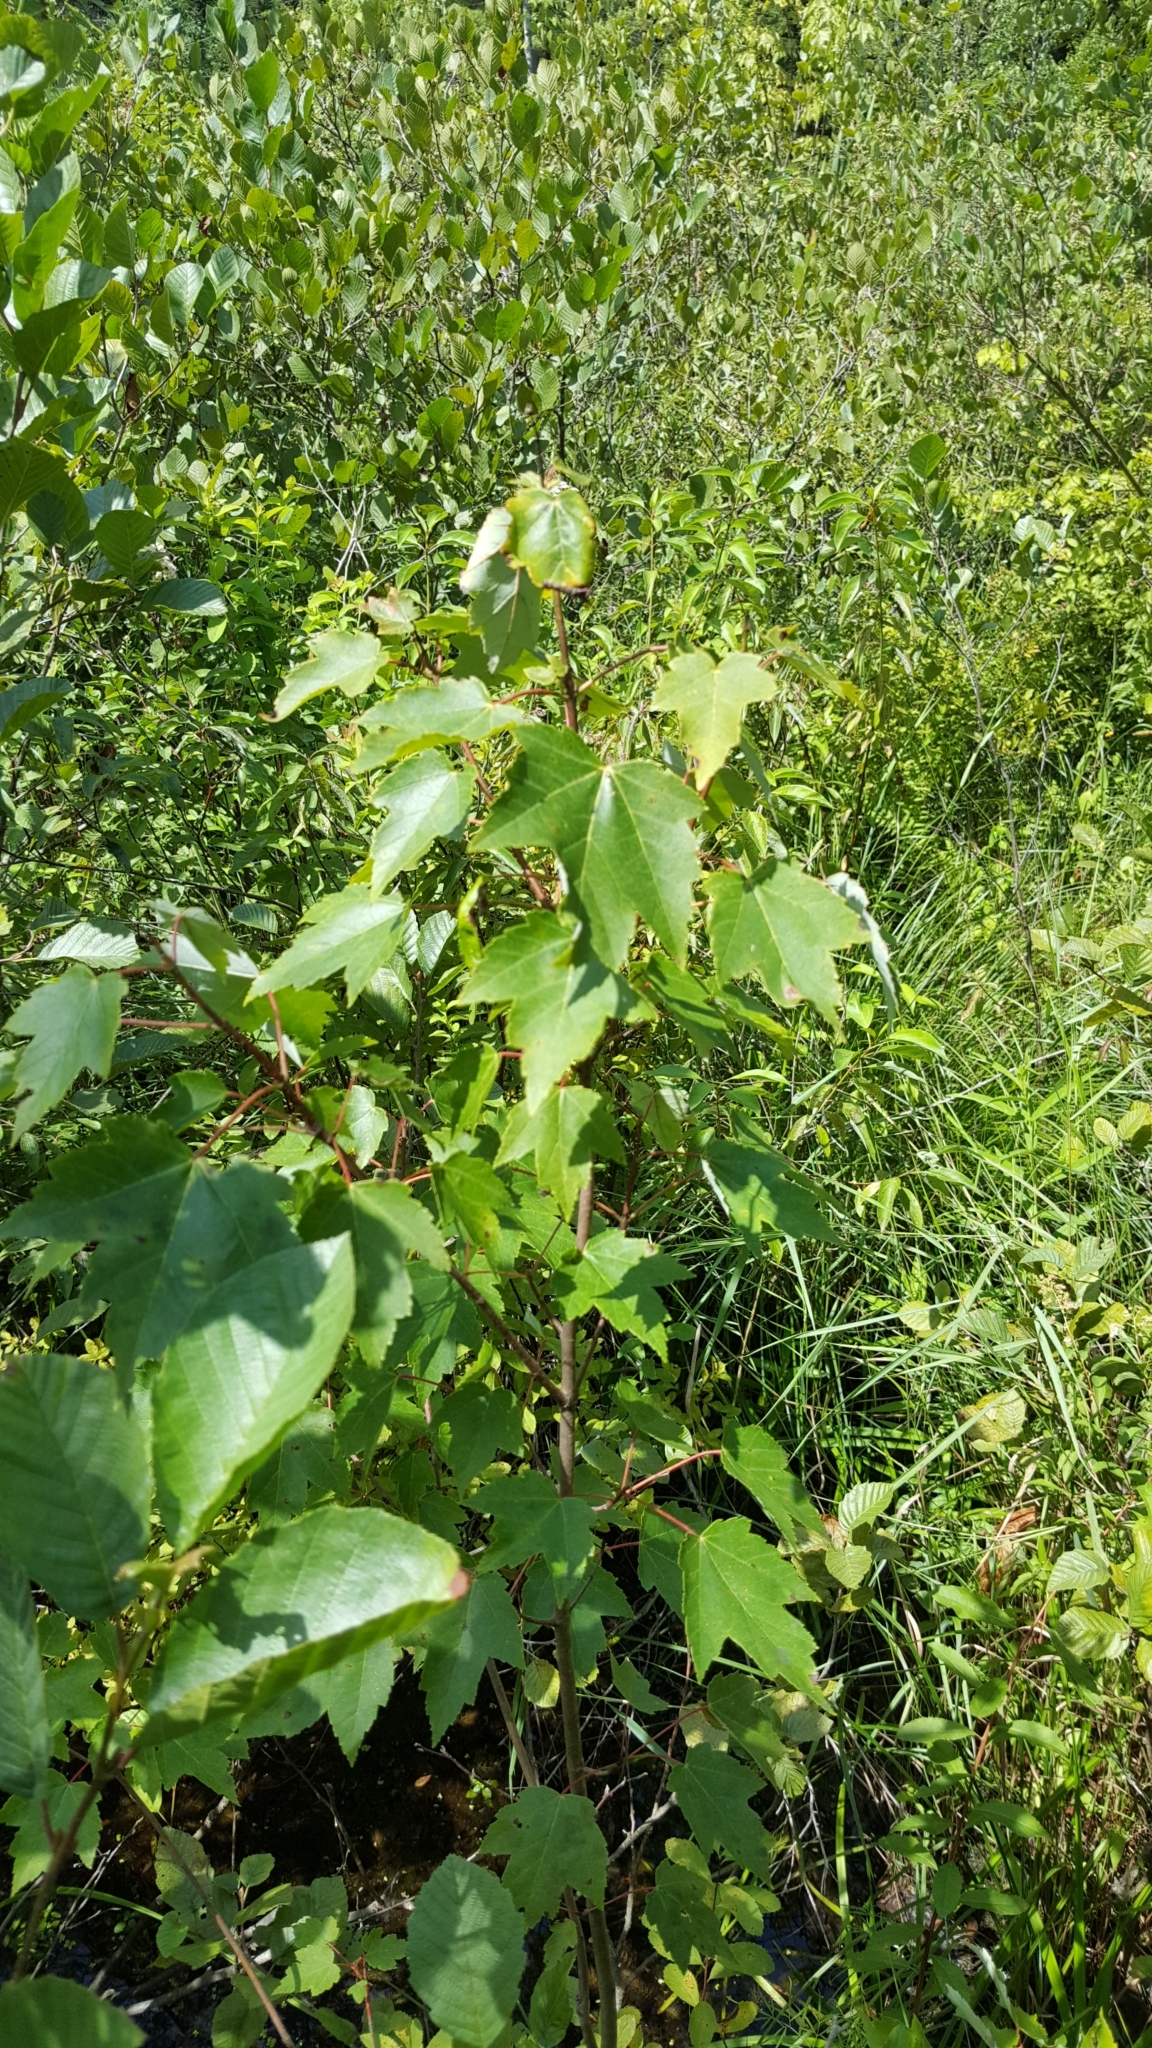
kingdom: Plantae
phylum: Tracheophyta
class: Magnoliopsida
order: Sapindales
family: Sapindaceae
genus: Acer
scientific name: Acer rubrum
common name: Red maple
